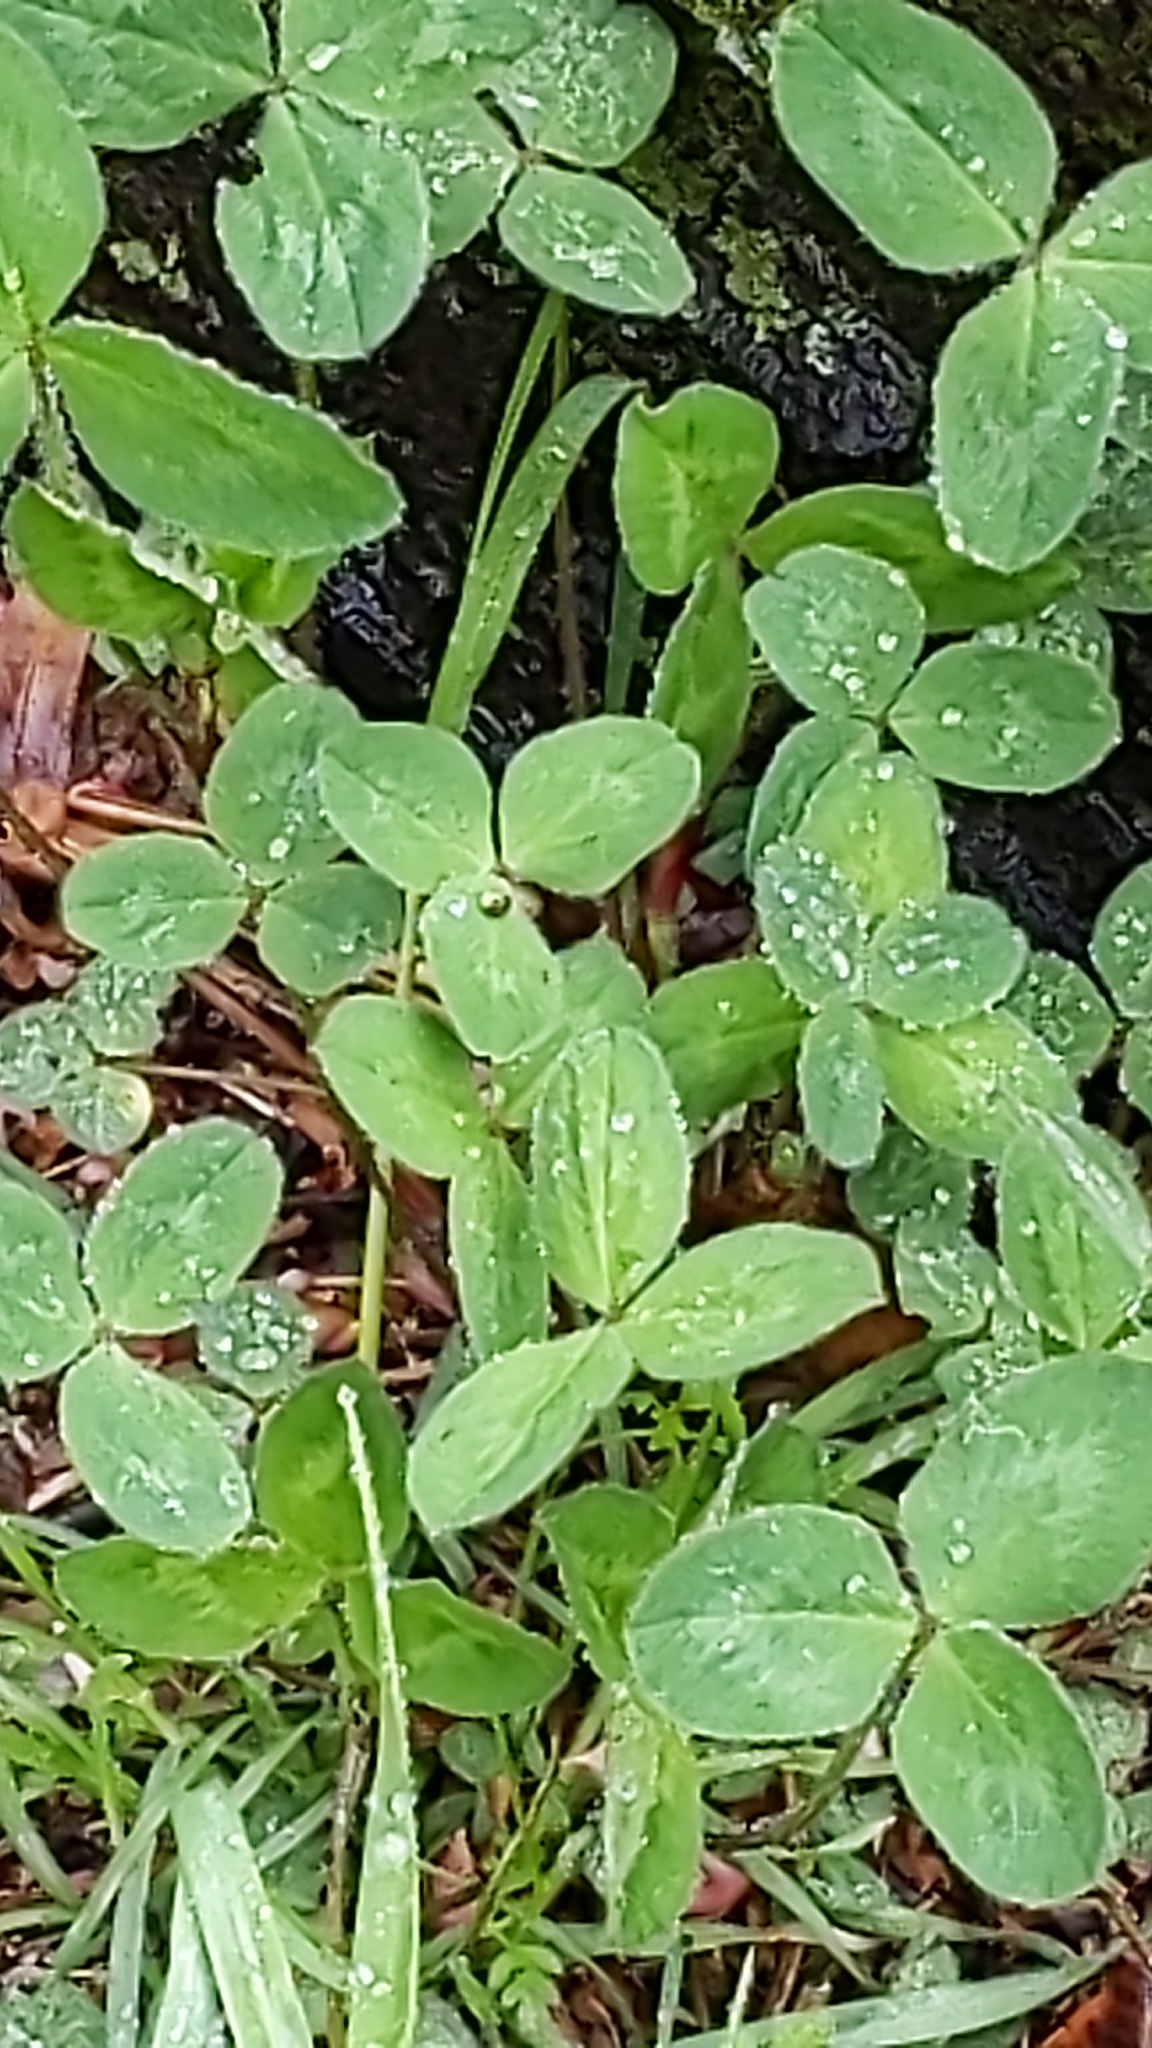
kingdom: Plantae
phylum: Tracheophyta
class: Magnoliopsida
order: Fabales
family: Fabaceae
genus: Trifolium
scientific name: Trifolium pratense
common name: Red clover
